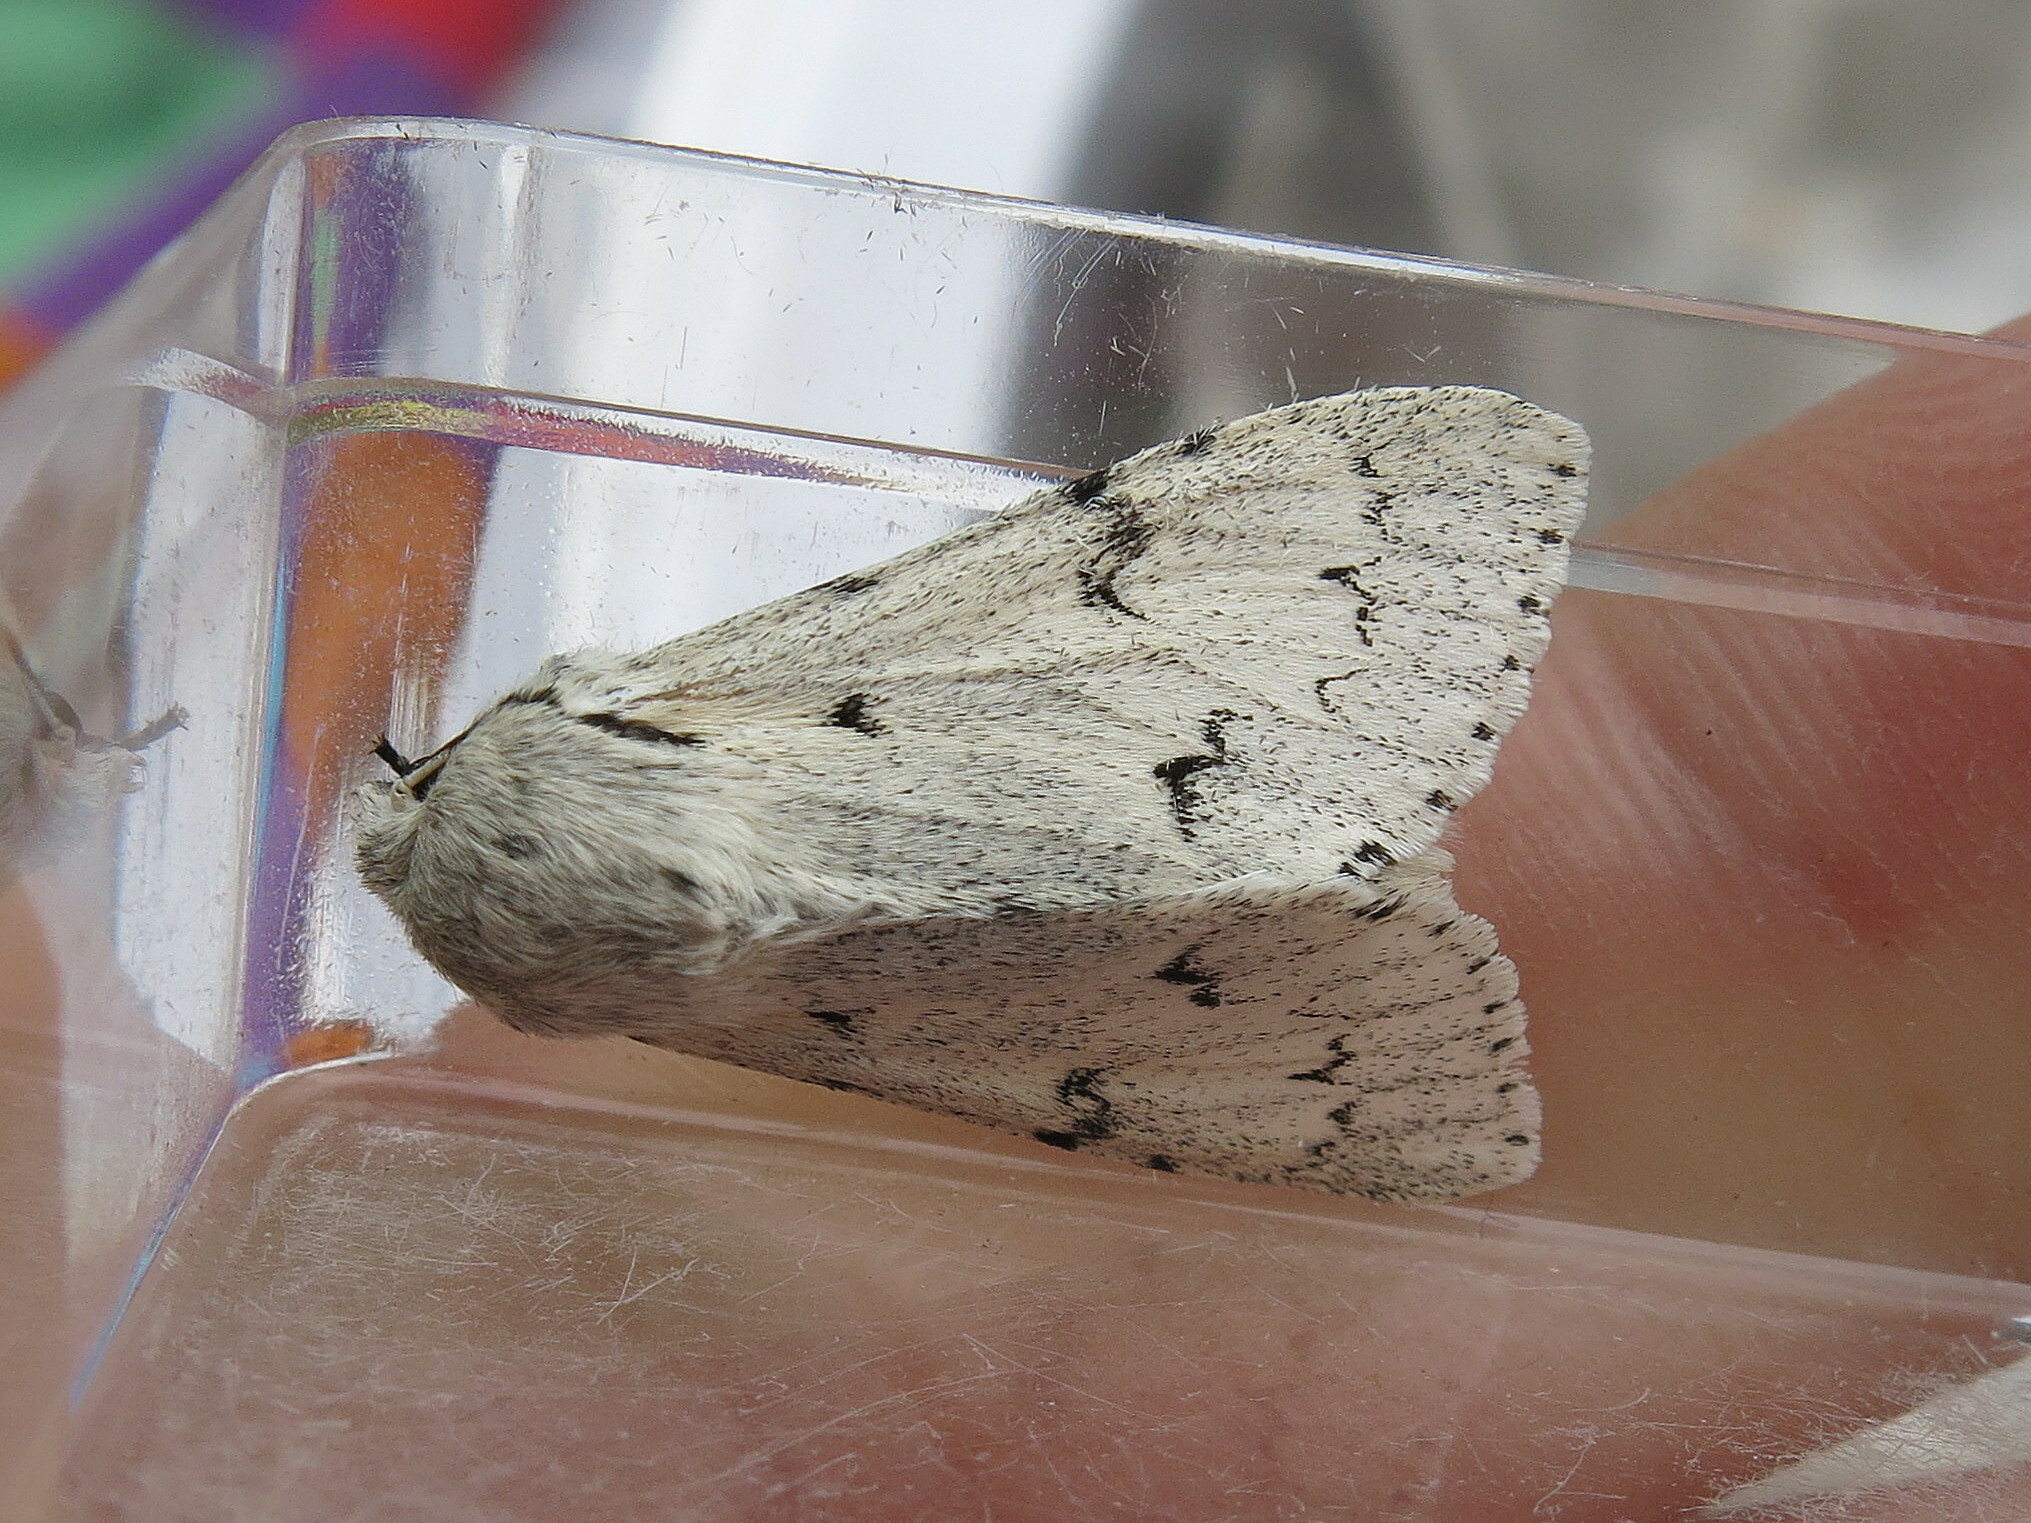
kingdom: Animalia
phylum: Arthropoda
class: Insecta
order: Lepidoptera
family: Noctuidae
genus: Acronicta
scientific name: Acronicta leporina
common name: Miller
